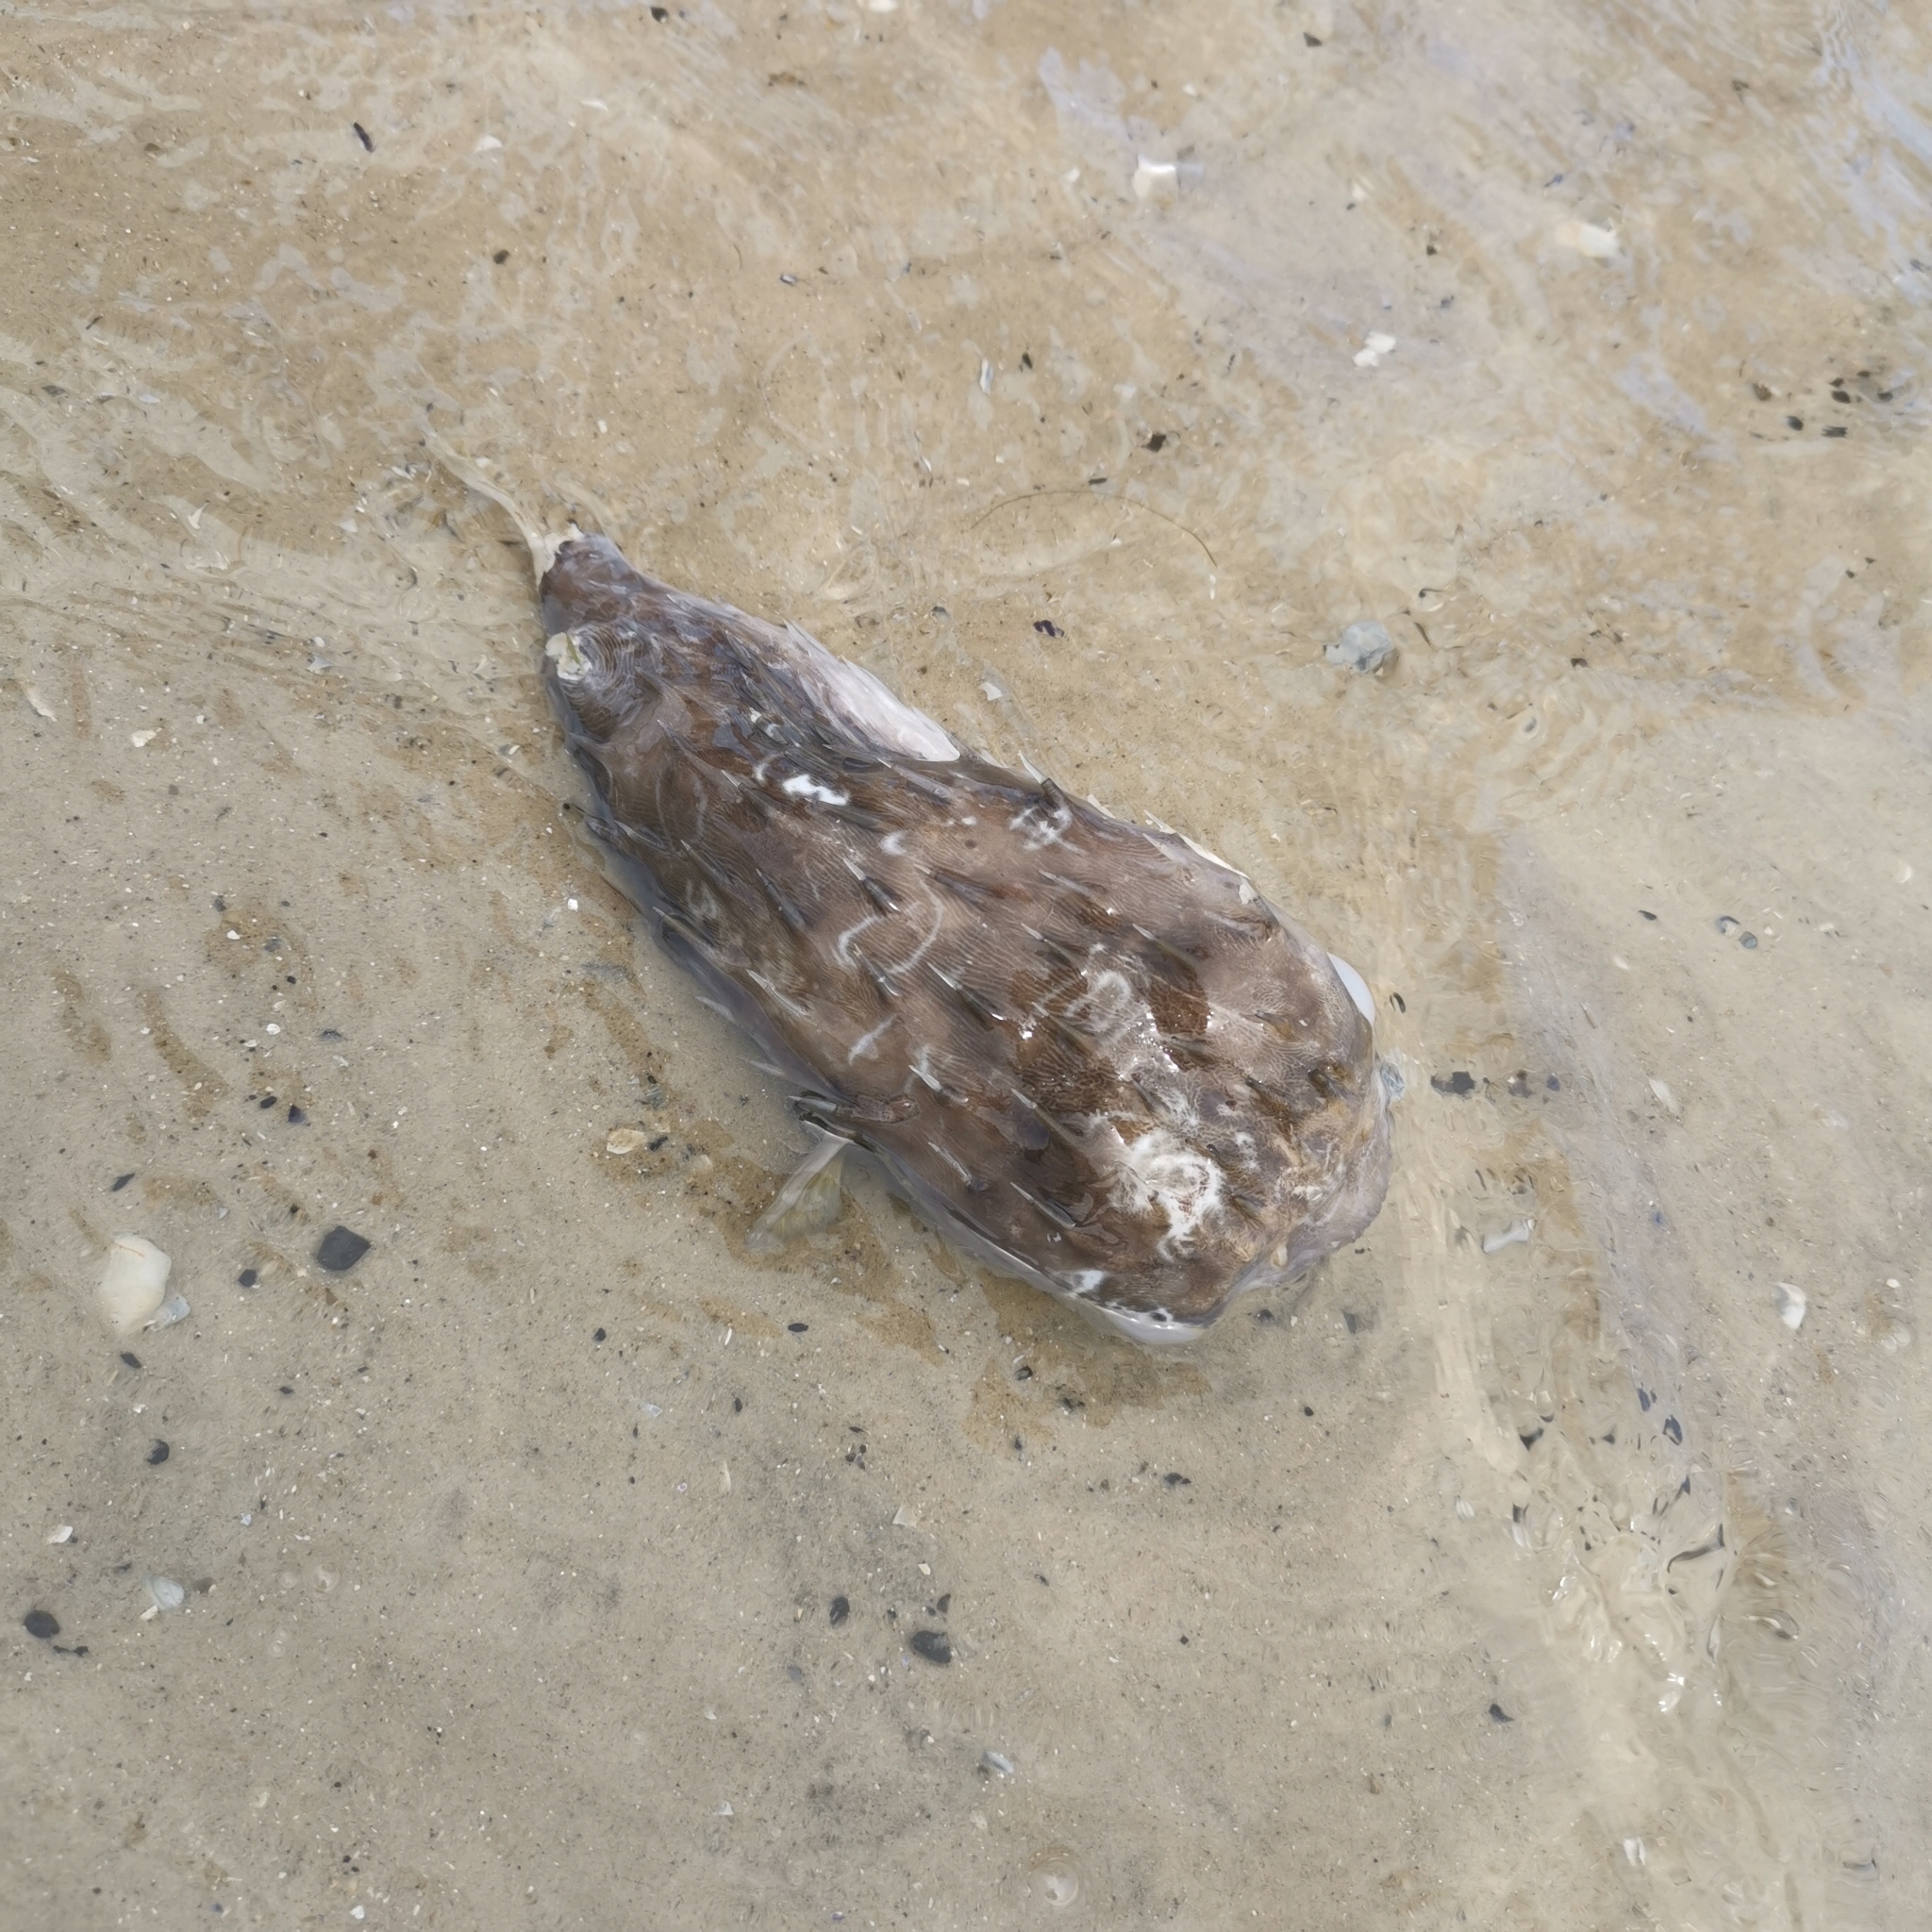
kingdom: Animalia
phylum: Chordata
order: Tetraodontiformes
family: Diodontidae
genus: Diodon
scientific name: Diodon nicthemerus
